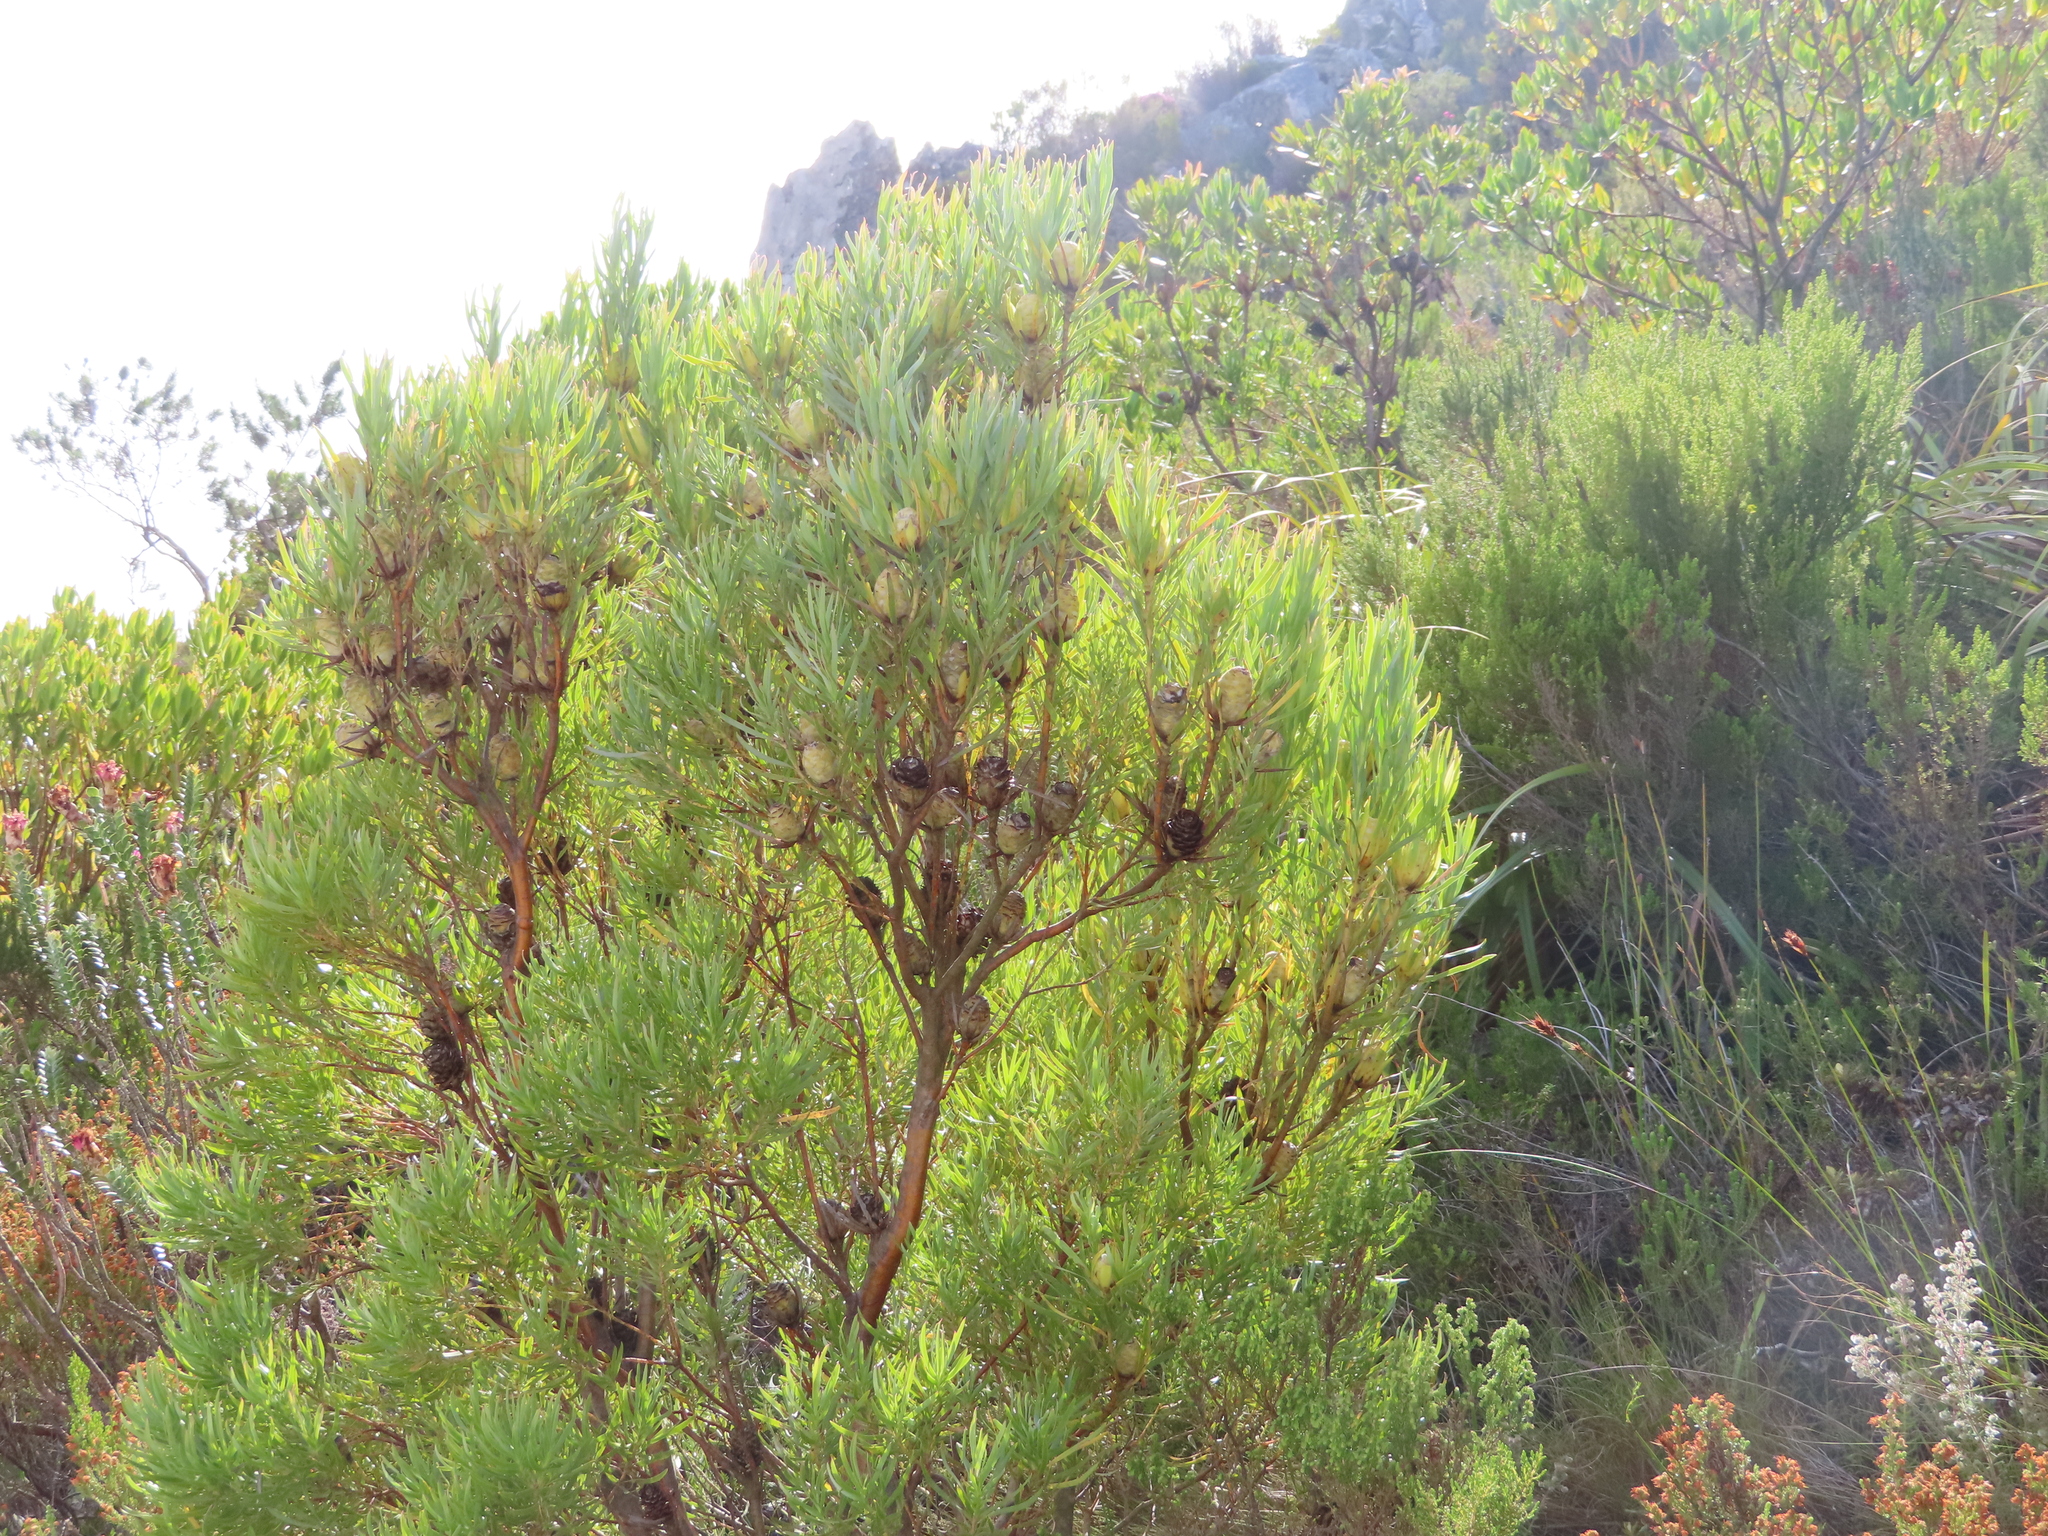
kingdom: Plantae
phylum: Tracheophyta
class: Magnoliopsida
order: Proteales
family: Proteaceae
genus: Leucadendron
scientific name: Leucadendron xanthoconus
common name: Sickle-leaf conebush
